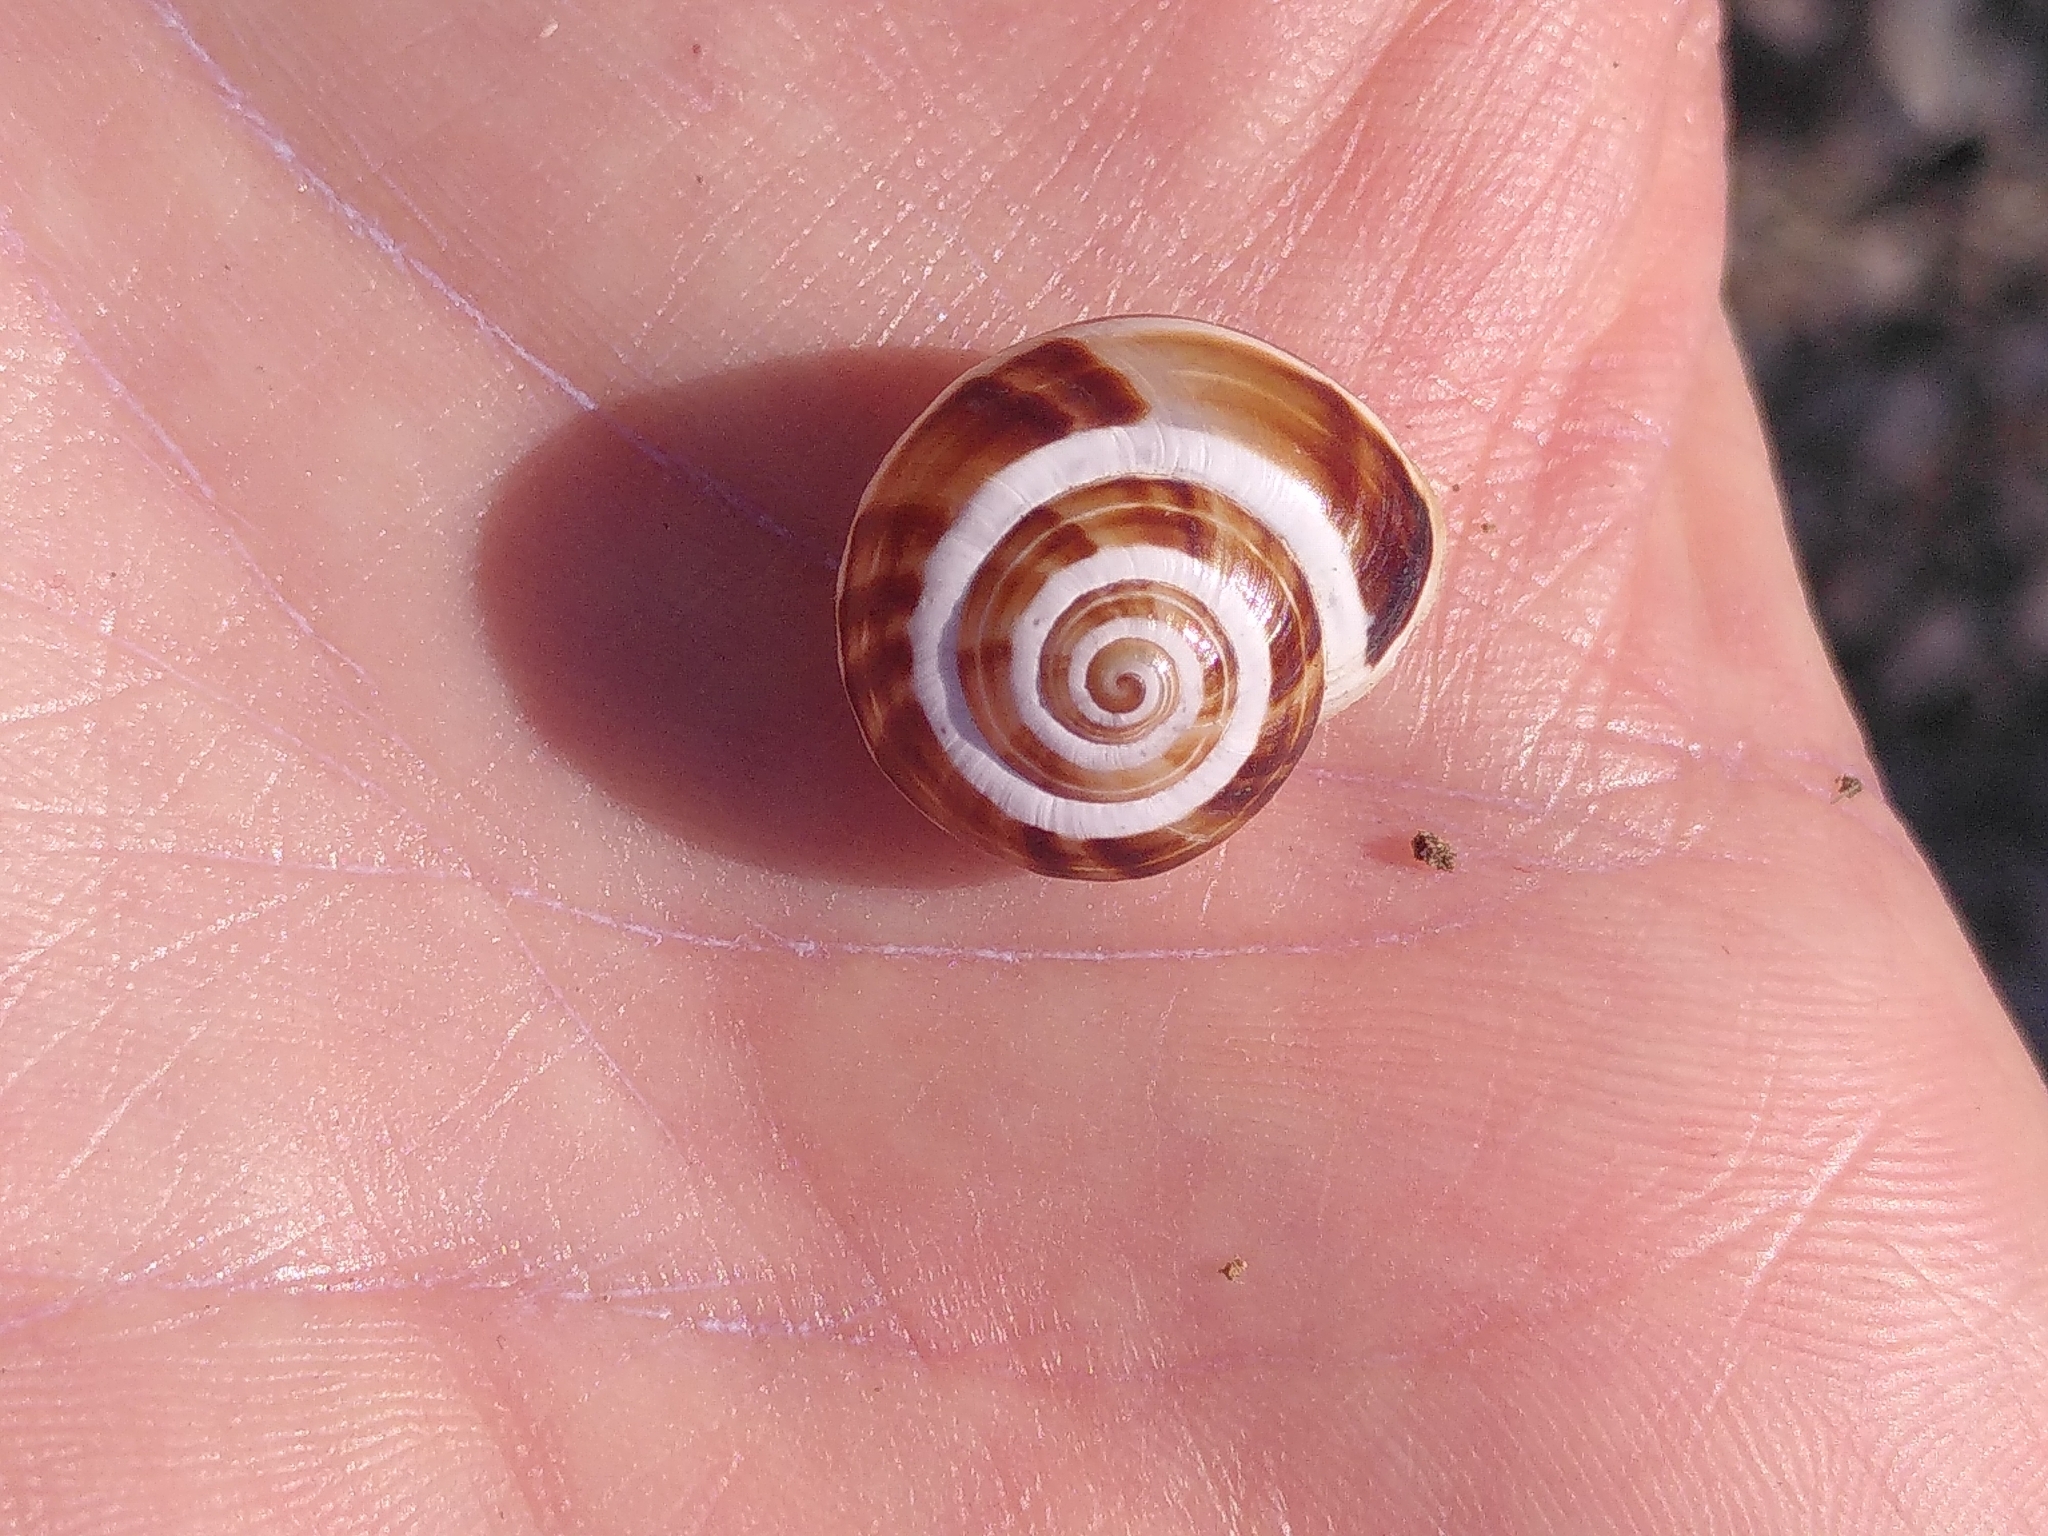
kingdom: Animalia
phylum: Mollusca
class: Gastropoda
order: Stylommatophora
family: Helicidae
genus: Pseudotachea
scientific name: Pseudotachea splendida
